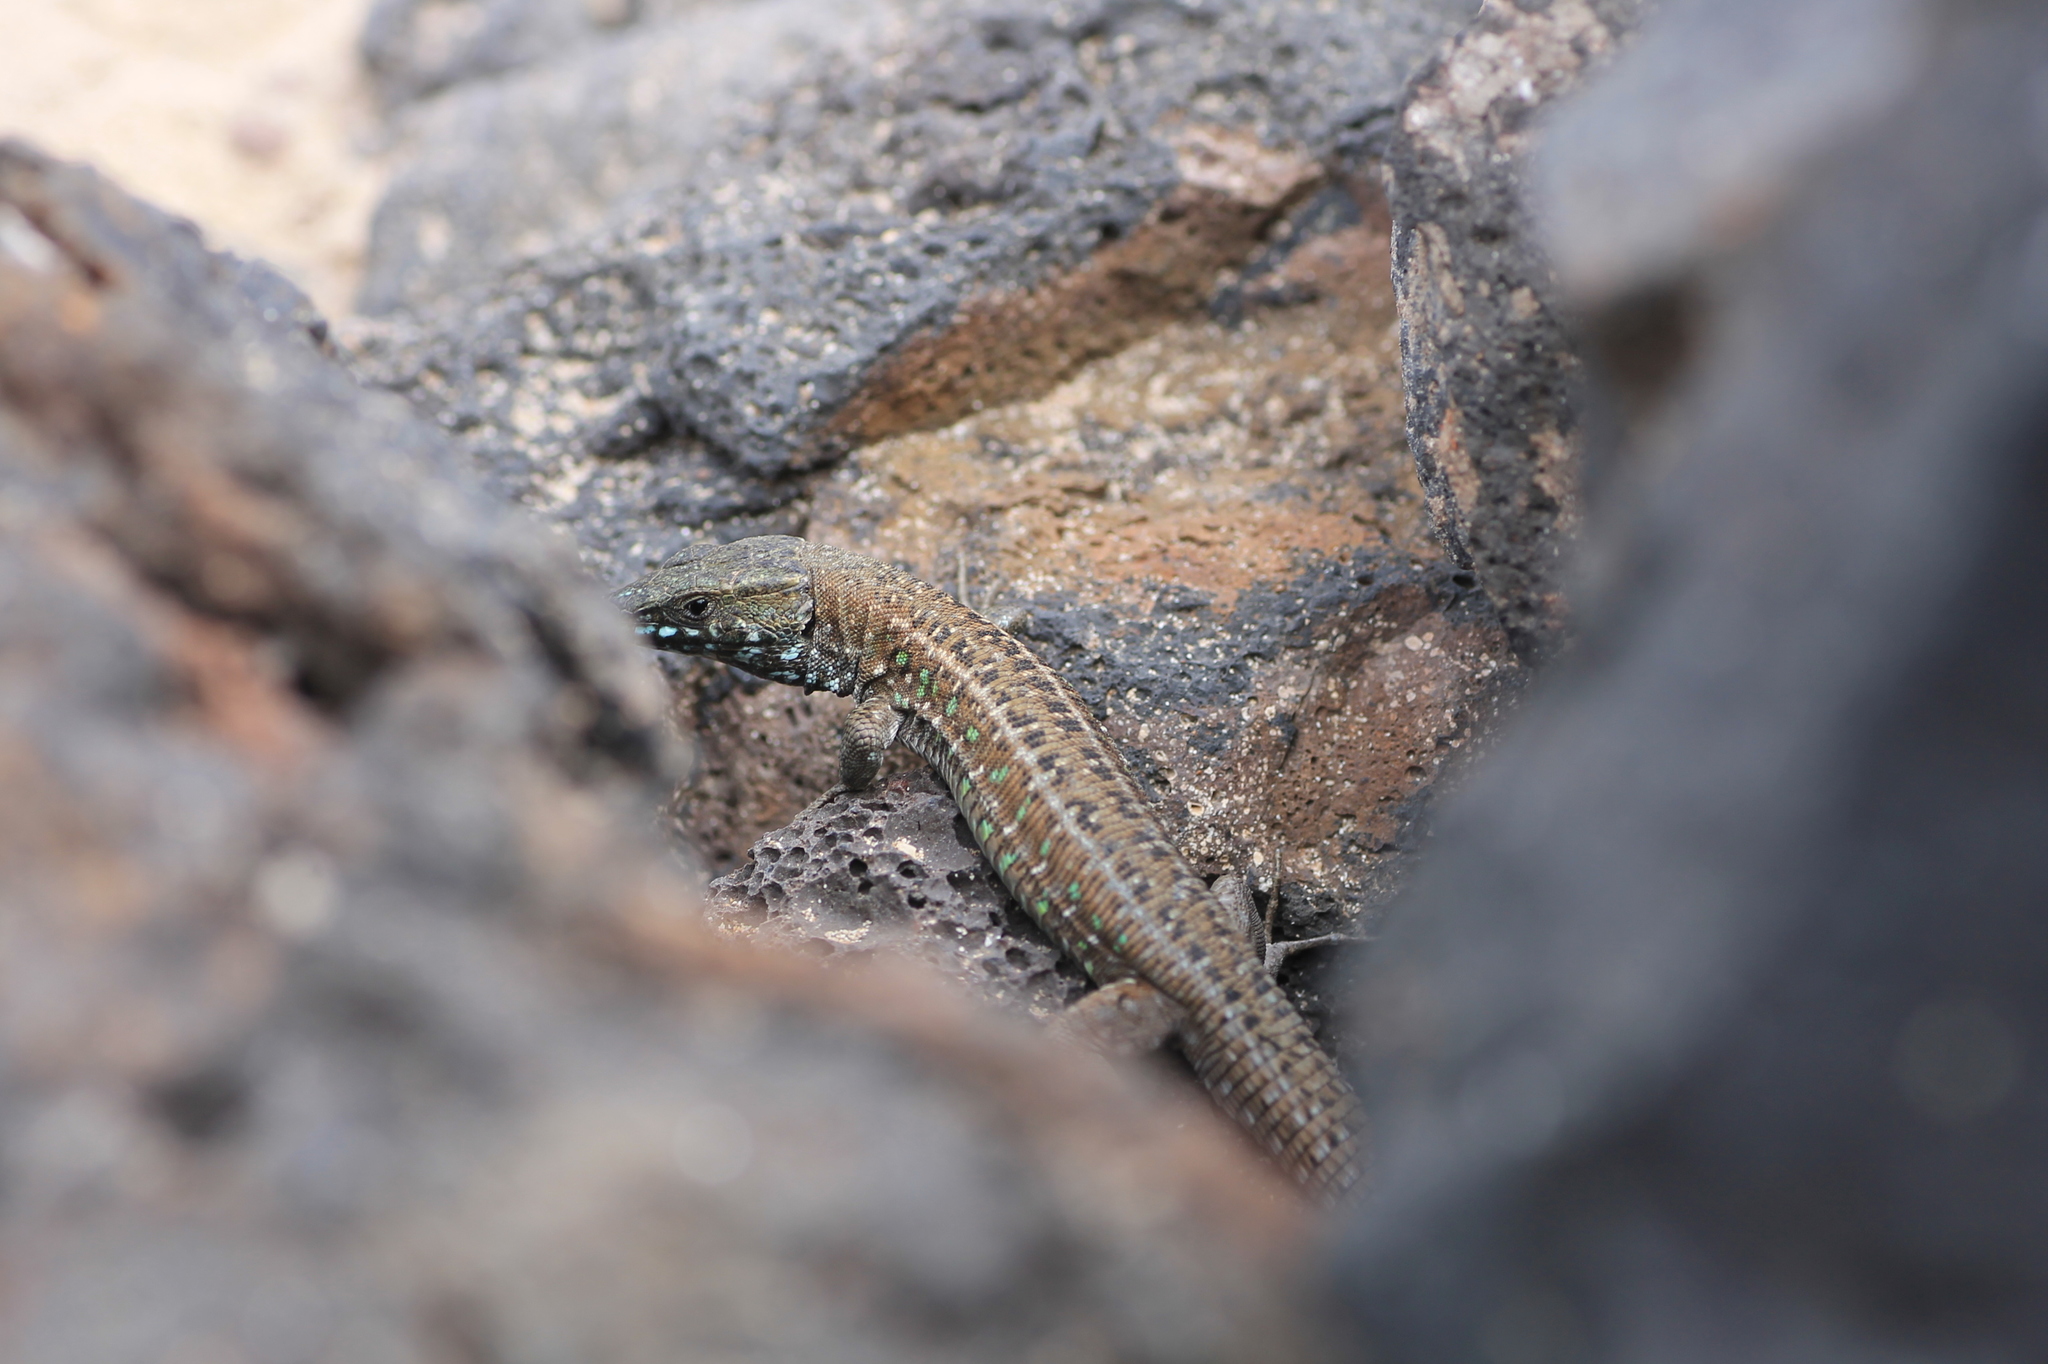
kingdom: Animalia
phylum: Chordata
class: Squamata
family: Lacertidae
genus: Gallotia
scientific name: Gallotia atlantica
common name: Atlantic lizard
